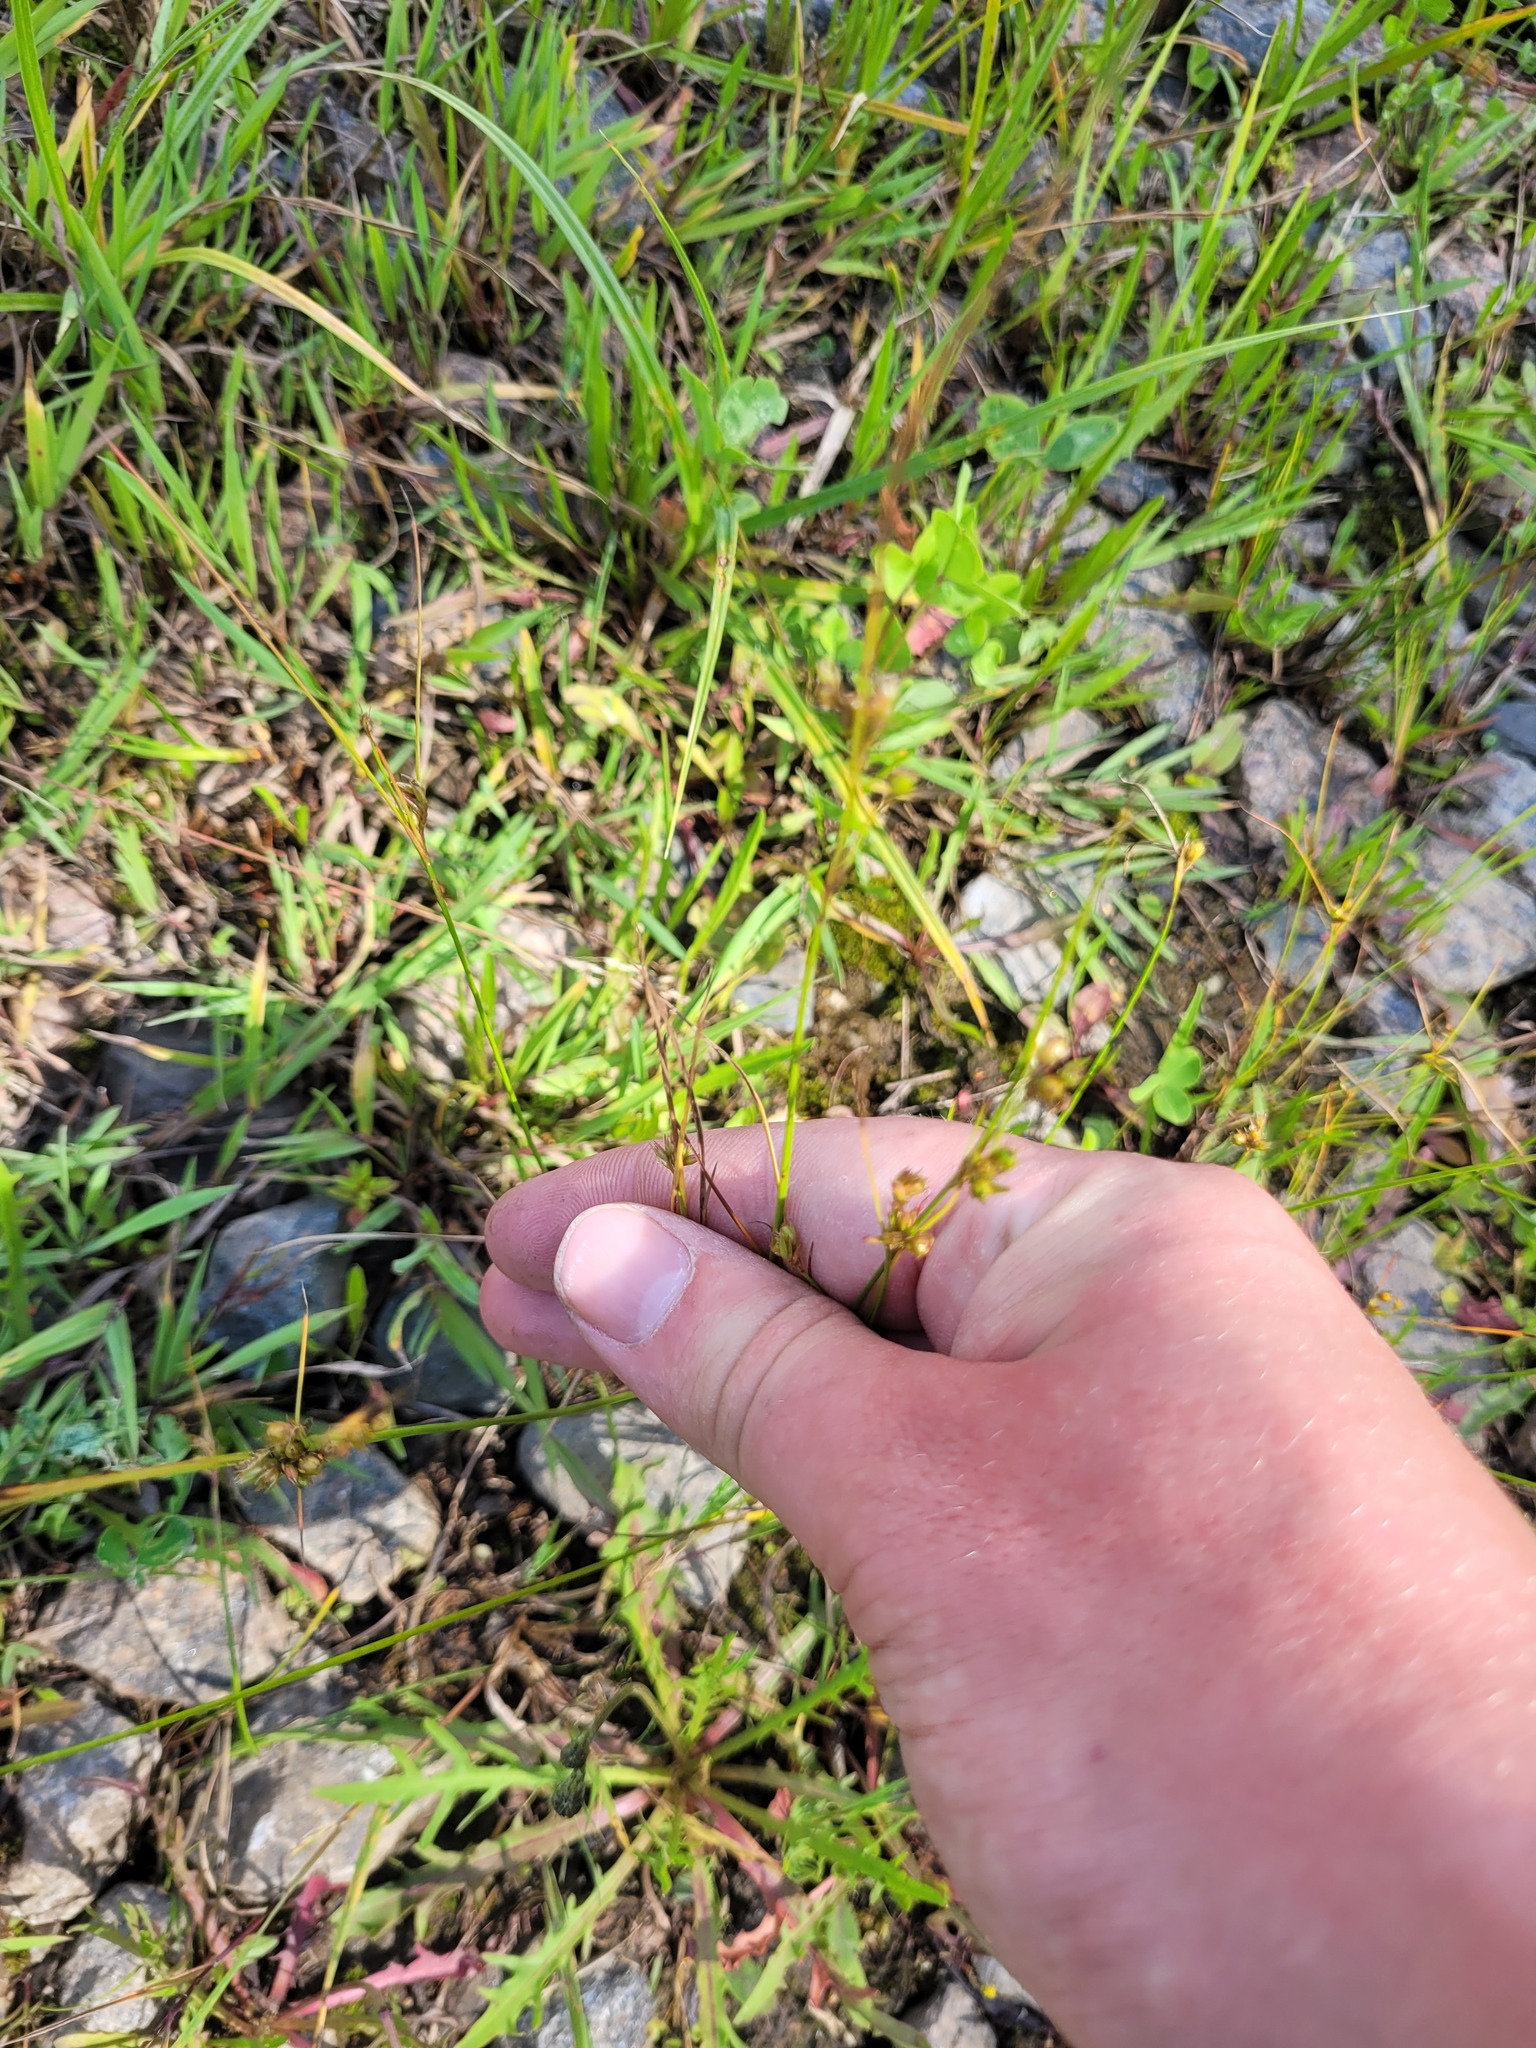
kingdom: Plantae
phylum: Tracheophyta
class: Liliopsida
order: Poales
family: Juncaceae
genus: Juncus
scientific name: Juncus tenuis
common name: Slender rush
